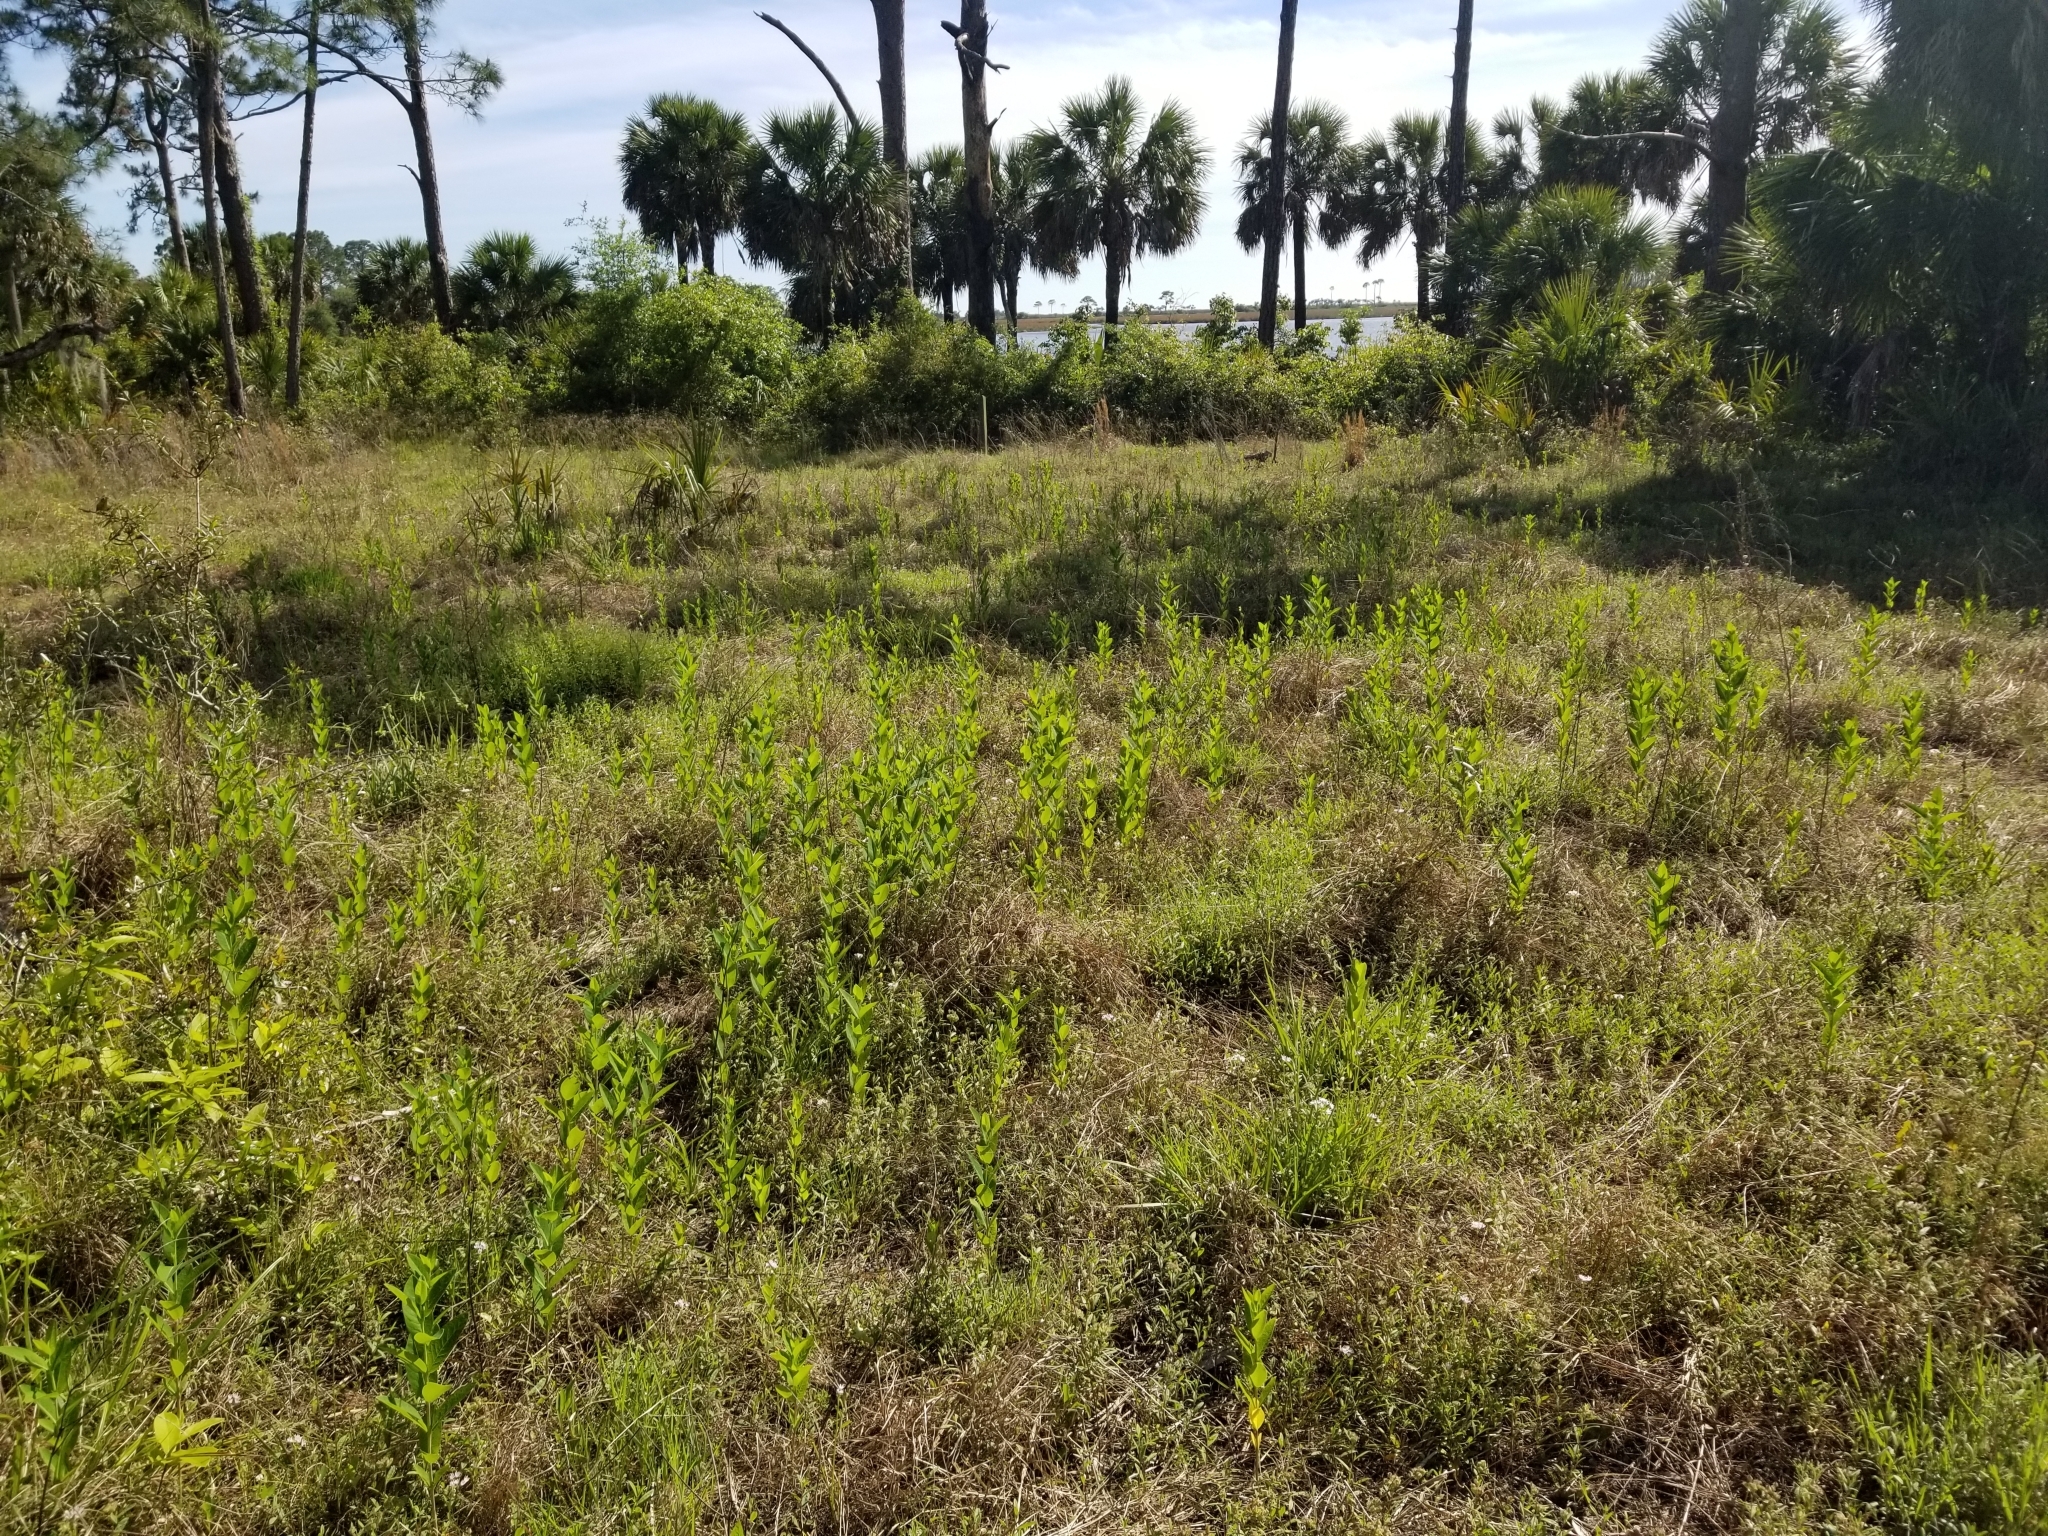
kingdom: Plantae
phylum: Tracheophyta
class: Magnoliopsida
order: Gentianales
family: Apocynaceae
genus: Apocynum
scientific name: Apocynum cannabinum
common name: Hemp dogbane
